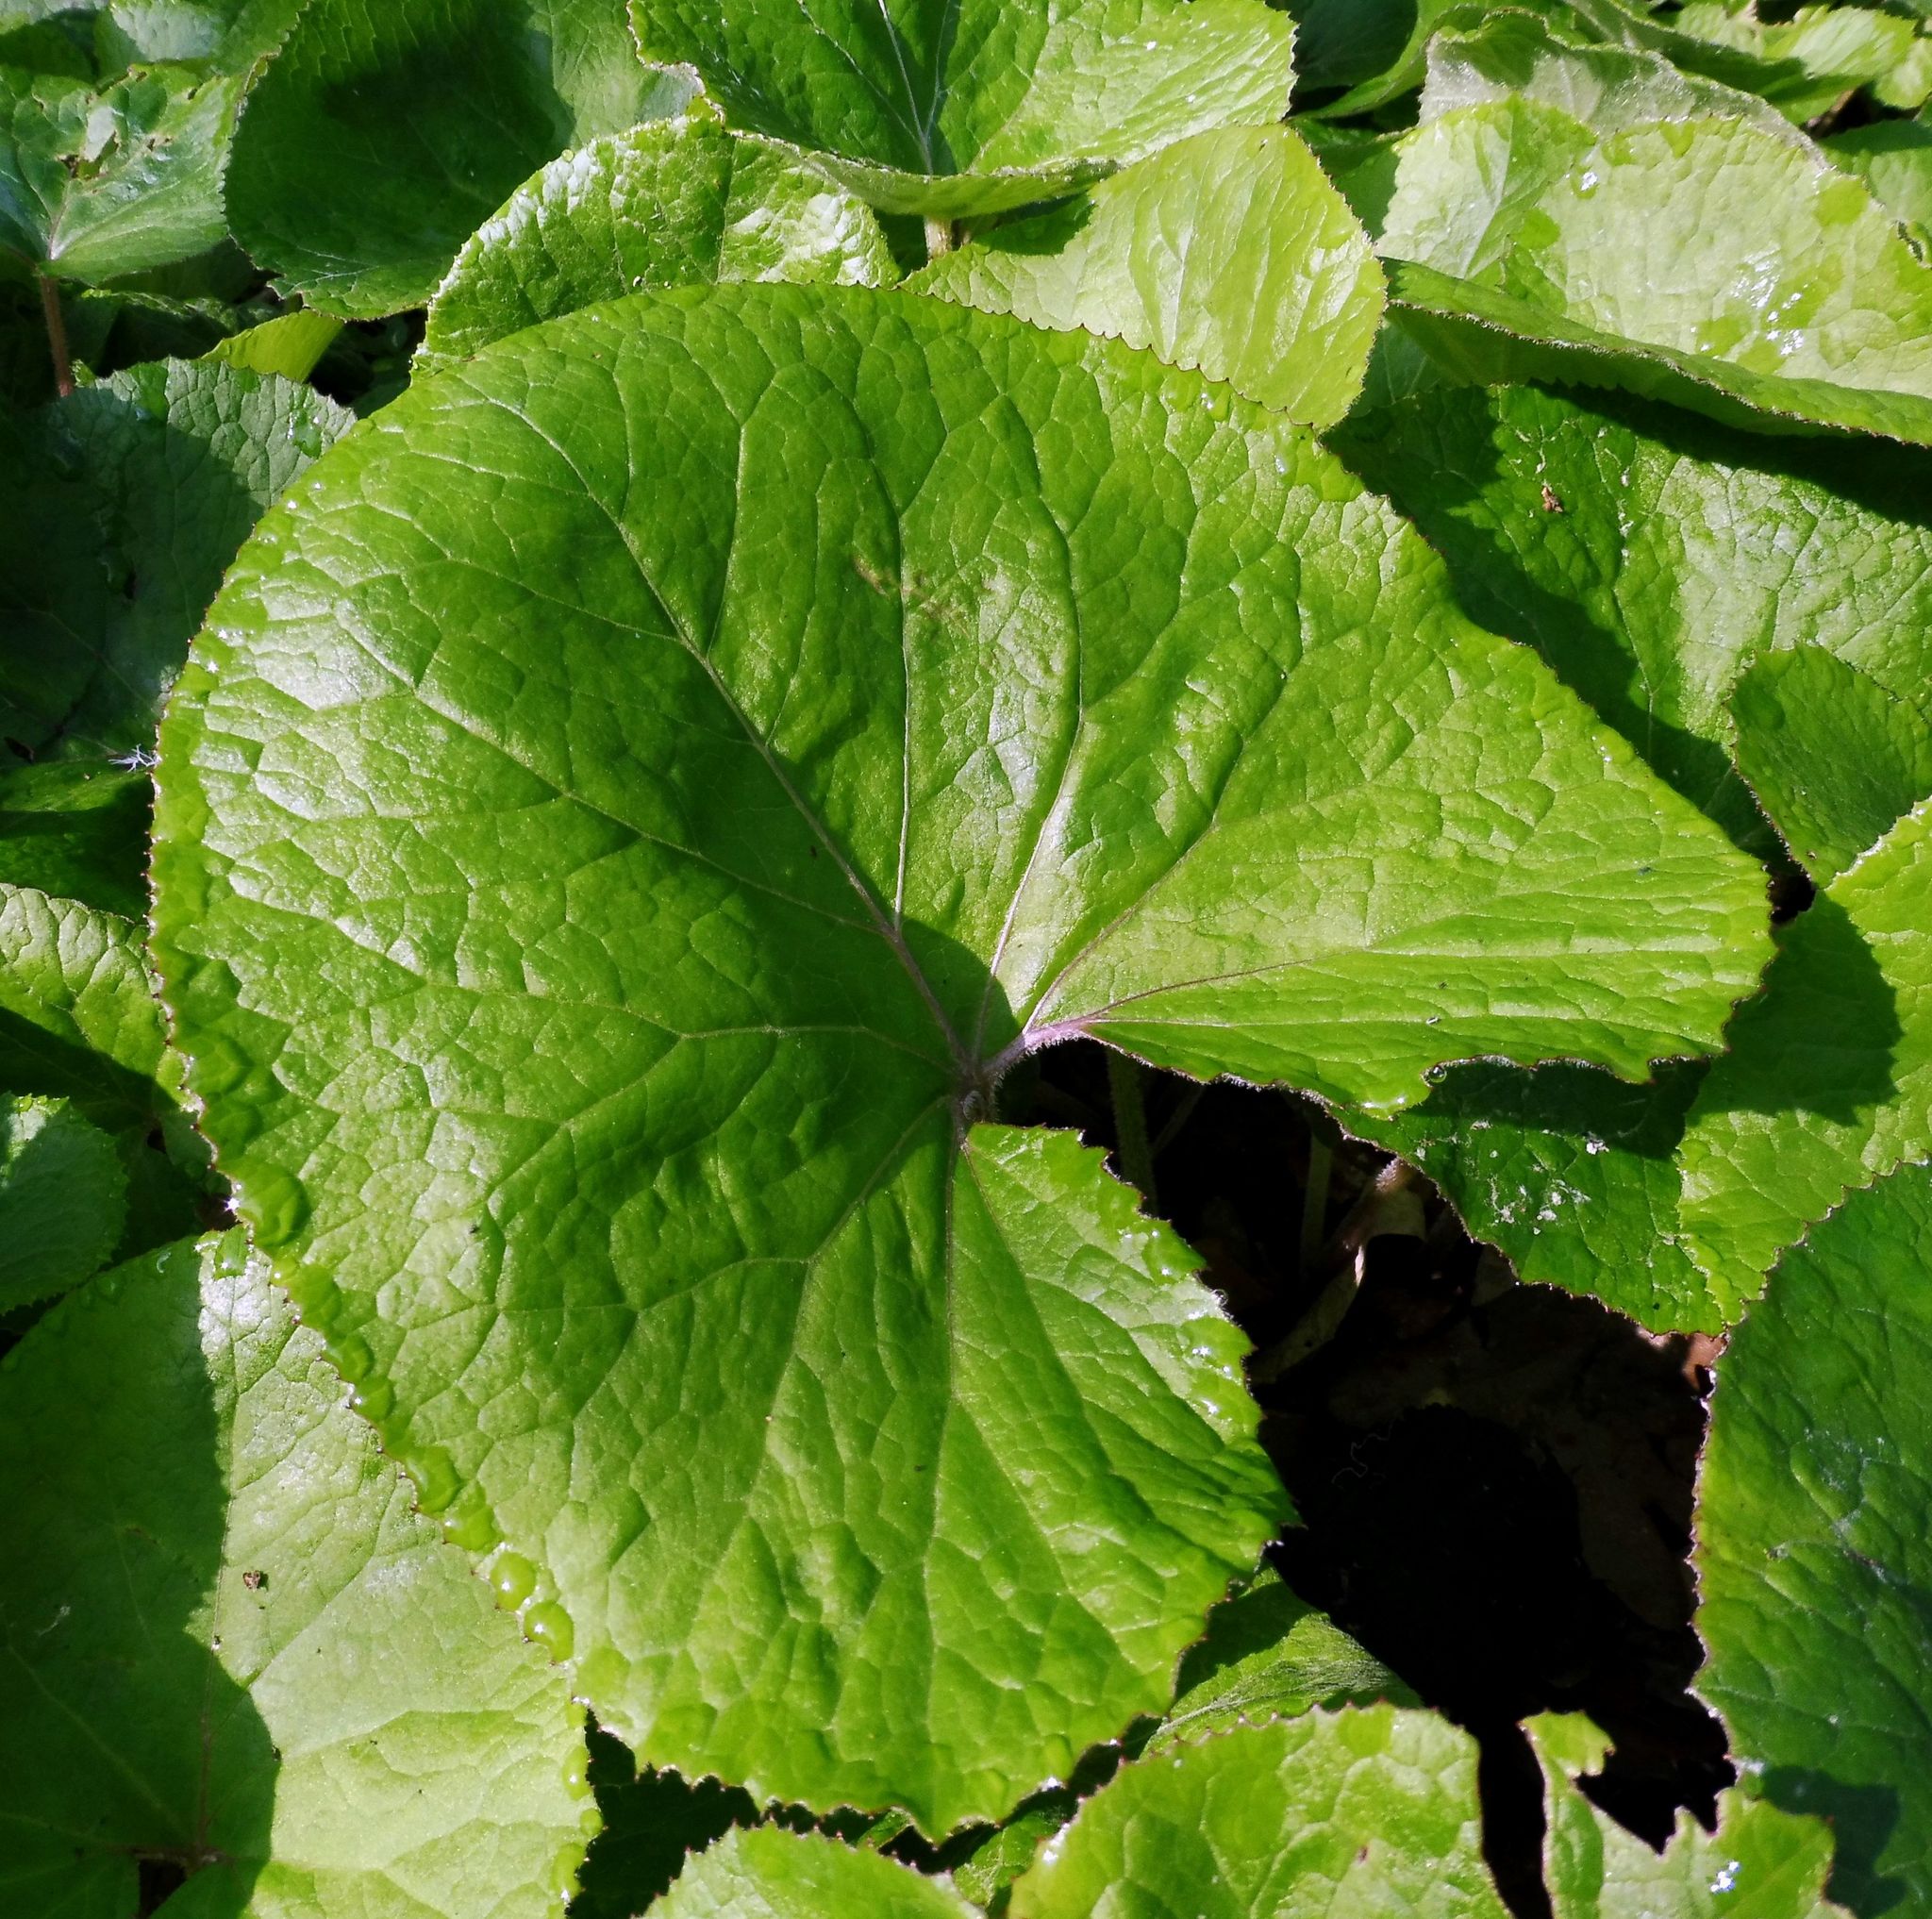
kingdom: Plantae
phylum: Tracheophyta
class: Magnoliopsida
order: Asterales
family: Asteraceae
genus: Petasites
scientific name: Petasites pyrenaicus
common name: Winter heliotrope
